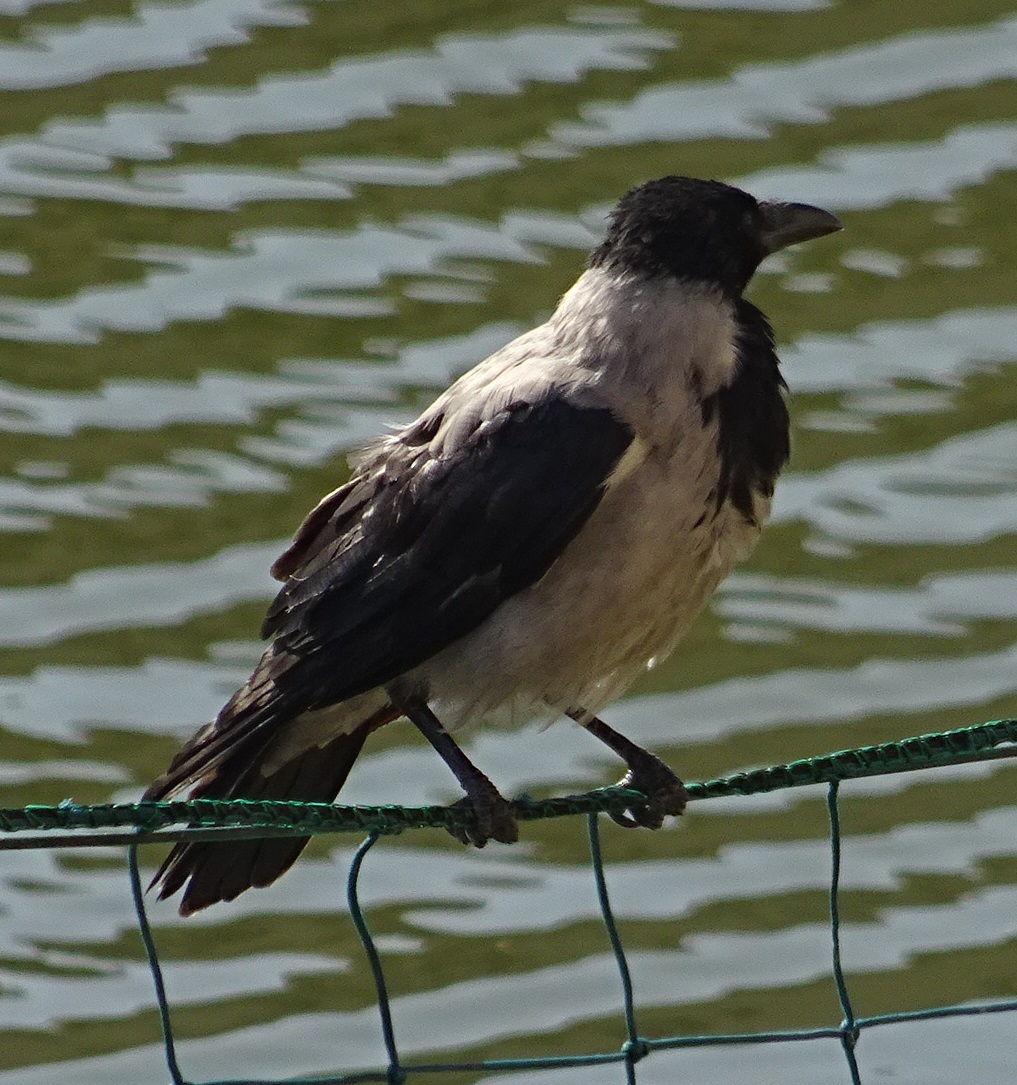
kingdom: Animalia
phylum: Chordata
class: Aves
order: Passeriformes
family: Corvidae
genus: Corvus
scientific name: Corvus cornix
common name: Hooded crow
